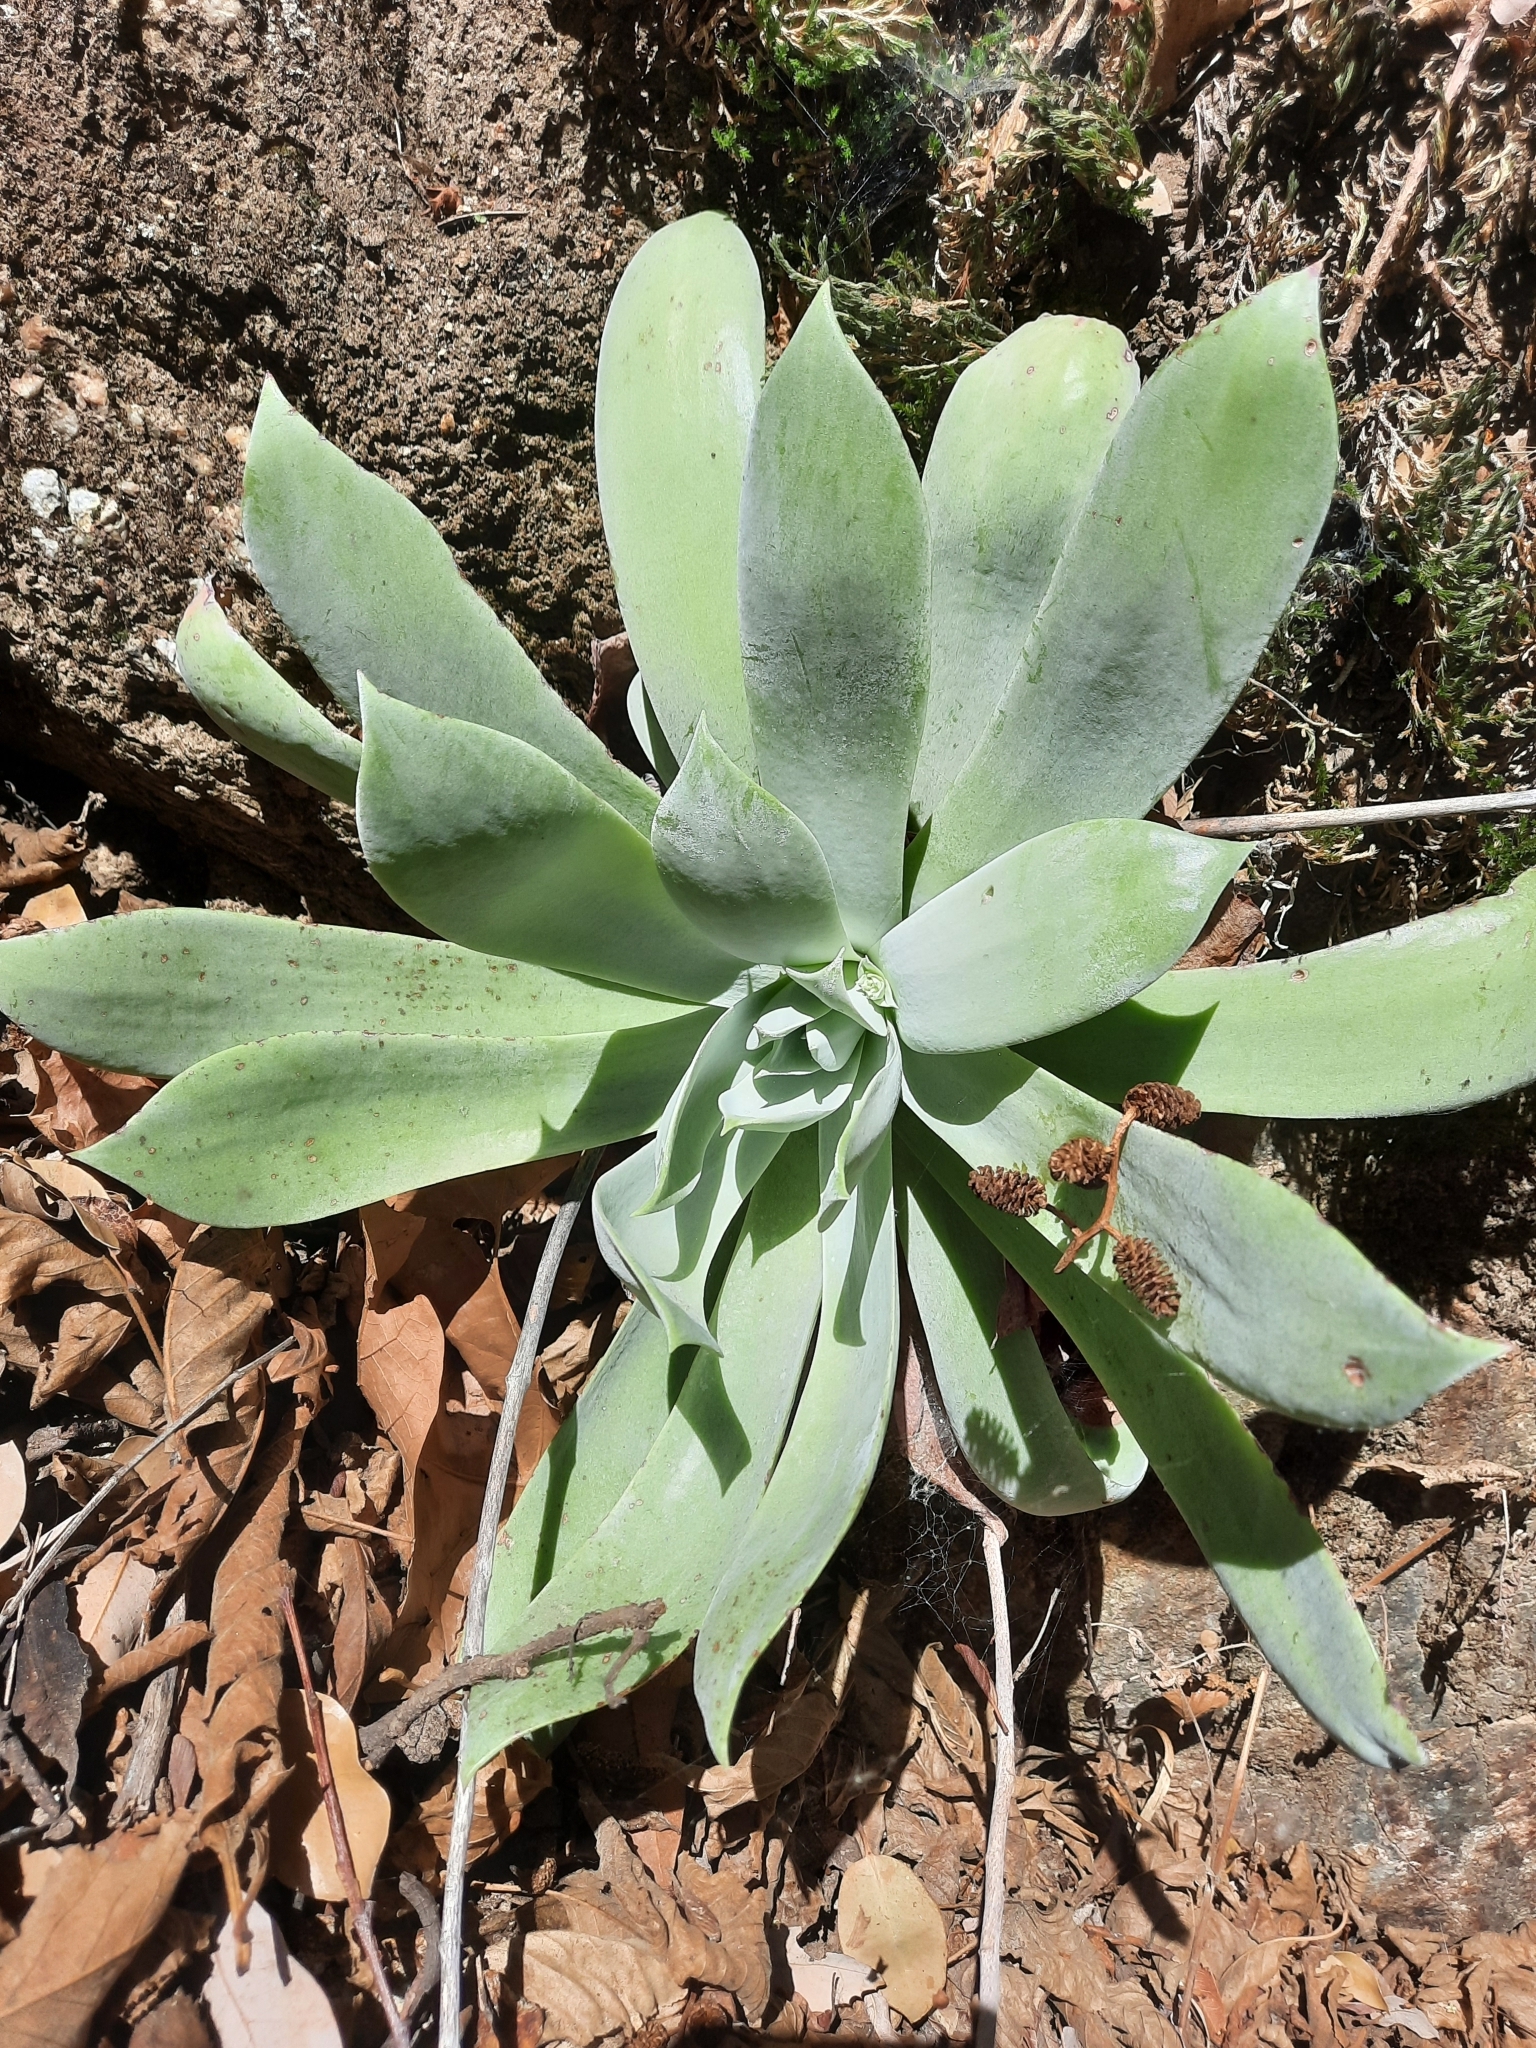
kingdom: Plantae
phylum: Tracheophyta
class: Magnoliopsida
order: Saxifragales
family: Crassulaceae
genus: Dudleya
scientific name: Dudleya pulverulenta
